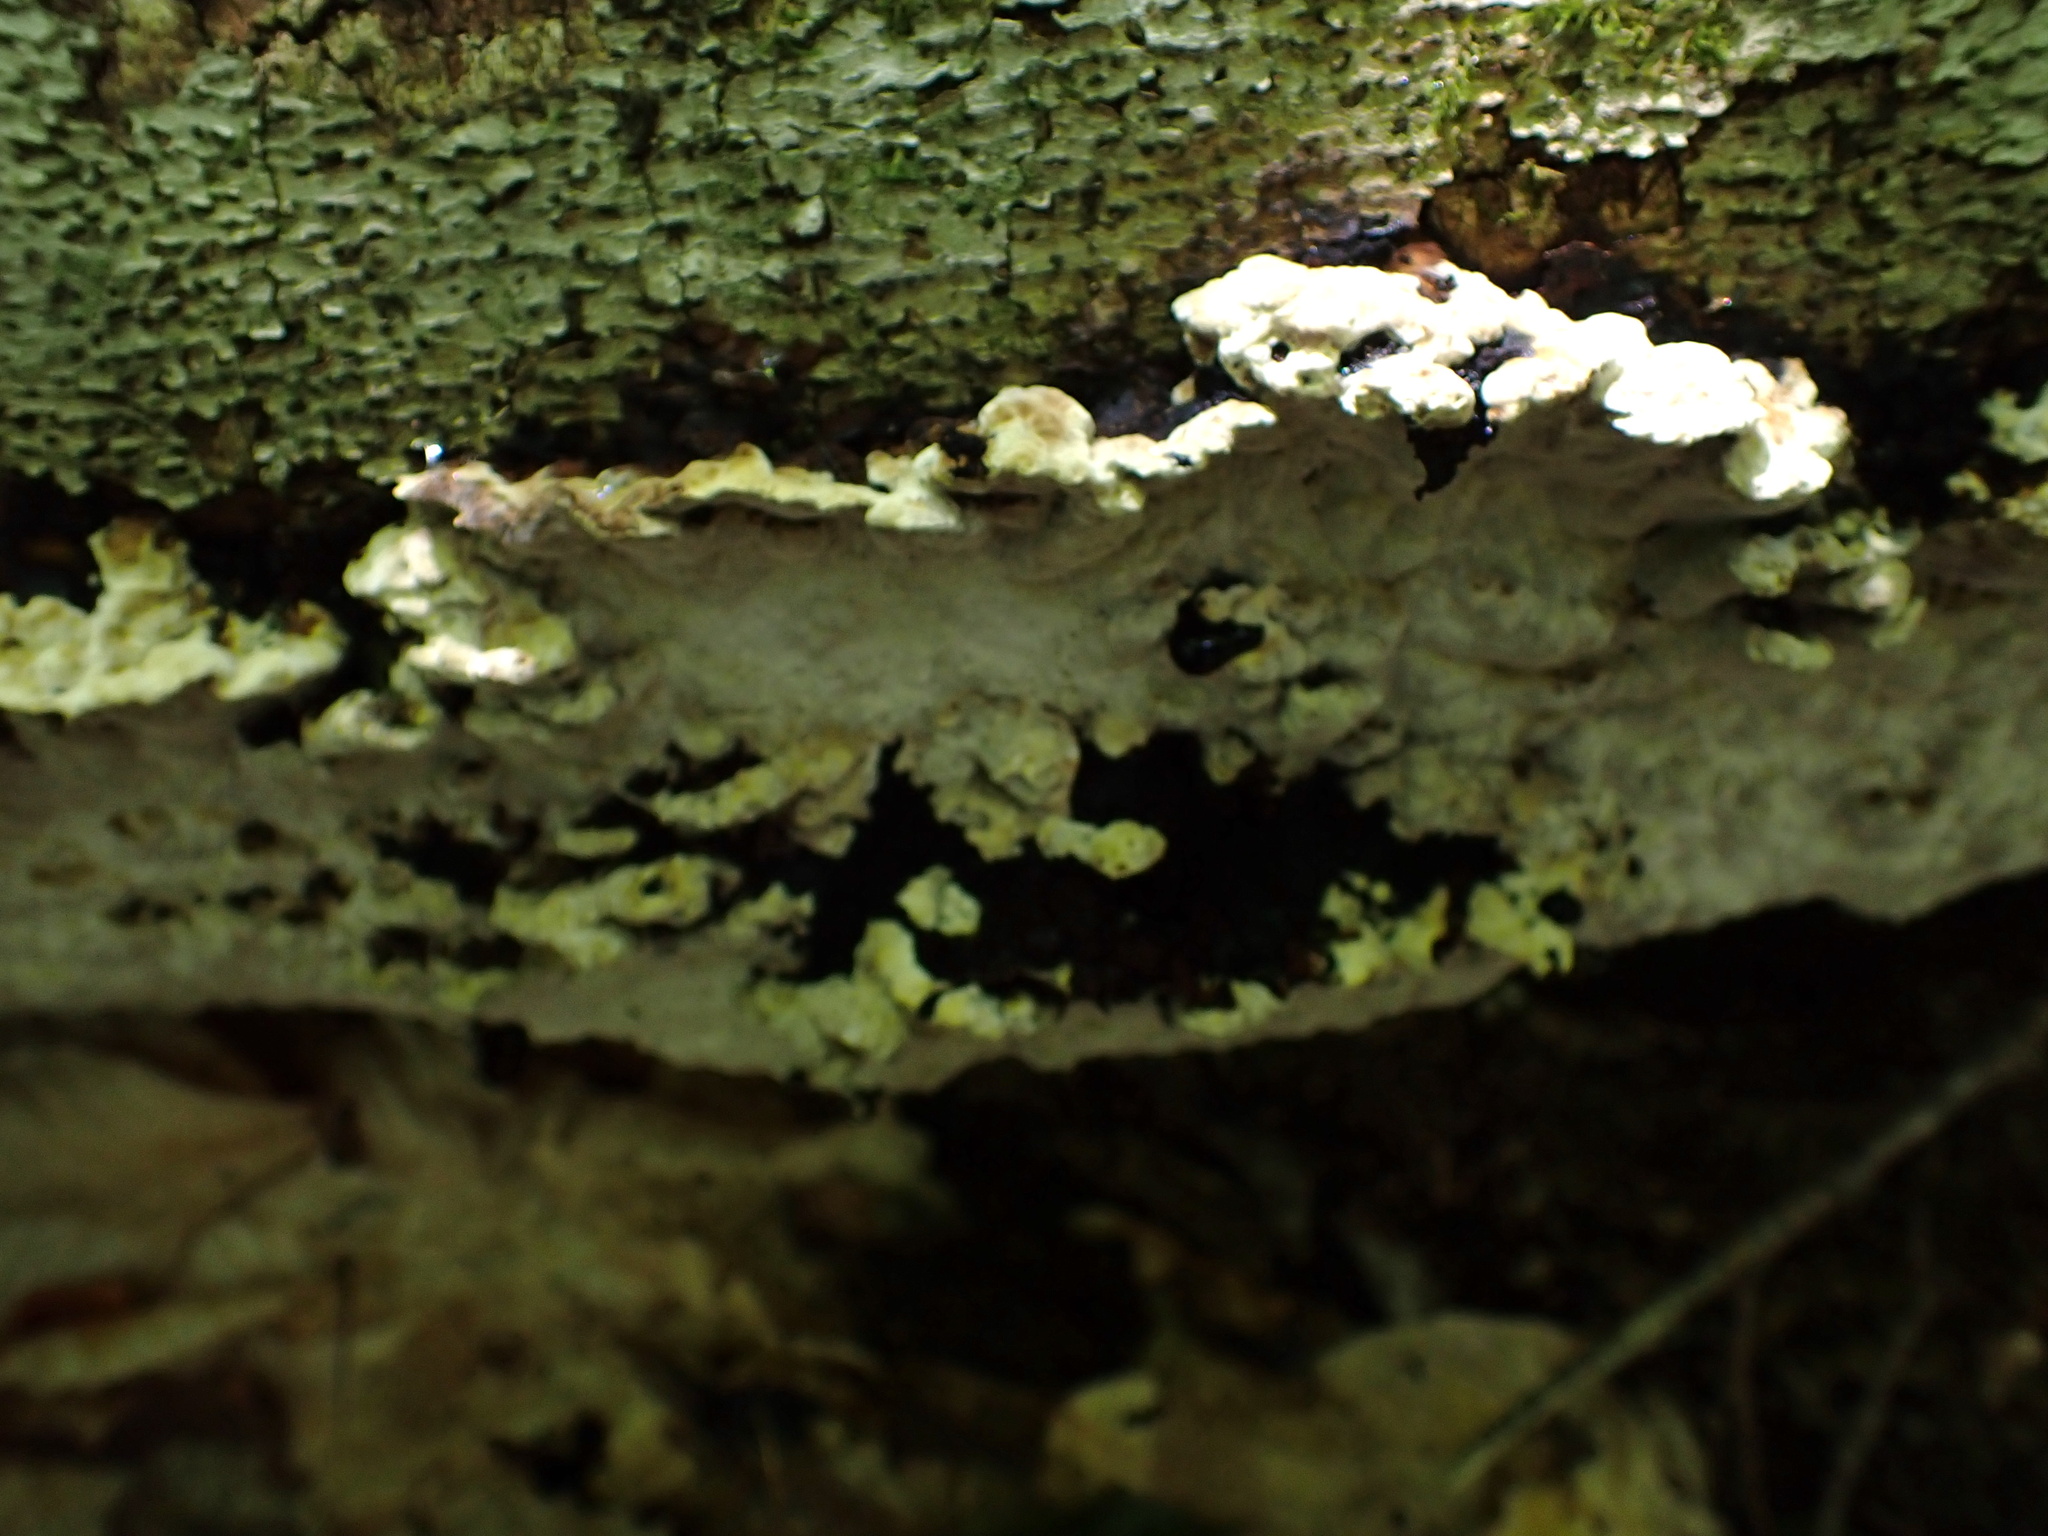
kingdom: Fungi
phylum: Basidiomycota
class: Agaricomycetes
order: Hymenochaetales
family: Hymenochaetaceae
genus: Phellinus
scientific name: Phellinus lundellii
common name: Birch bristle bracket
